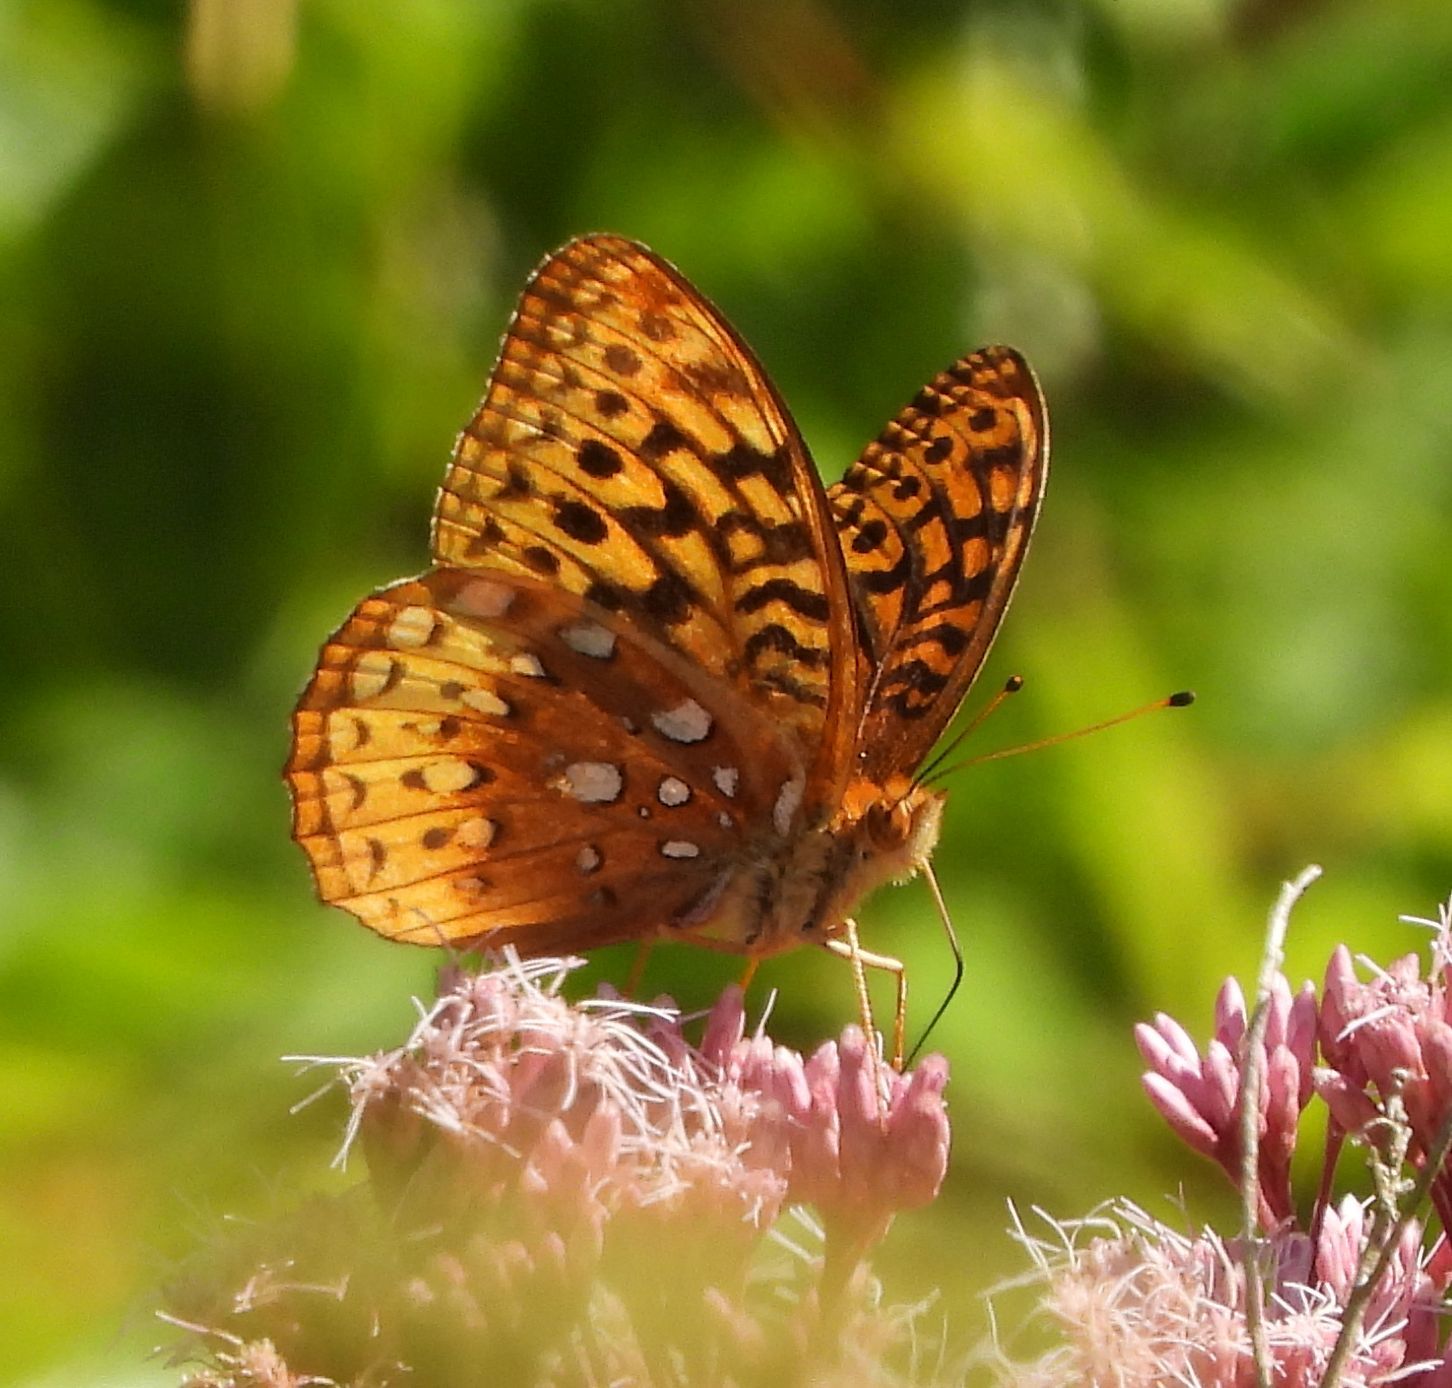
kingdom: Animalia
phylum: Arthropoda
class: Insecta
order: Lepidoptera
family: Nymphalidae
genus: Speyeria
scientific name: Speyeria cybele
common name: Great spangled fritillary
